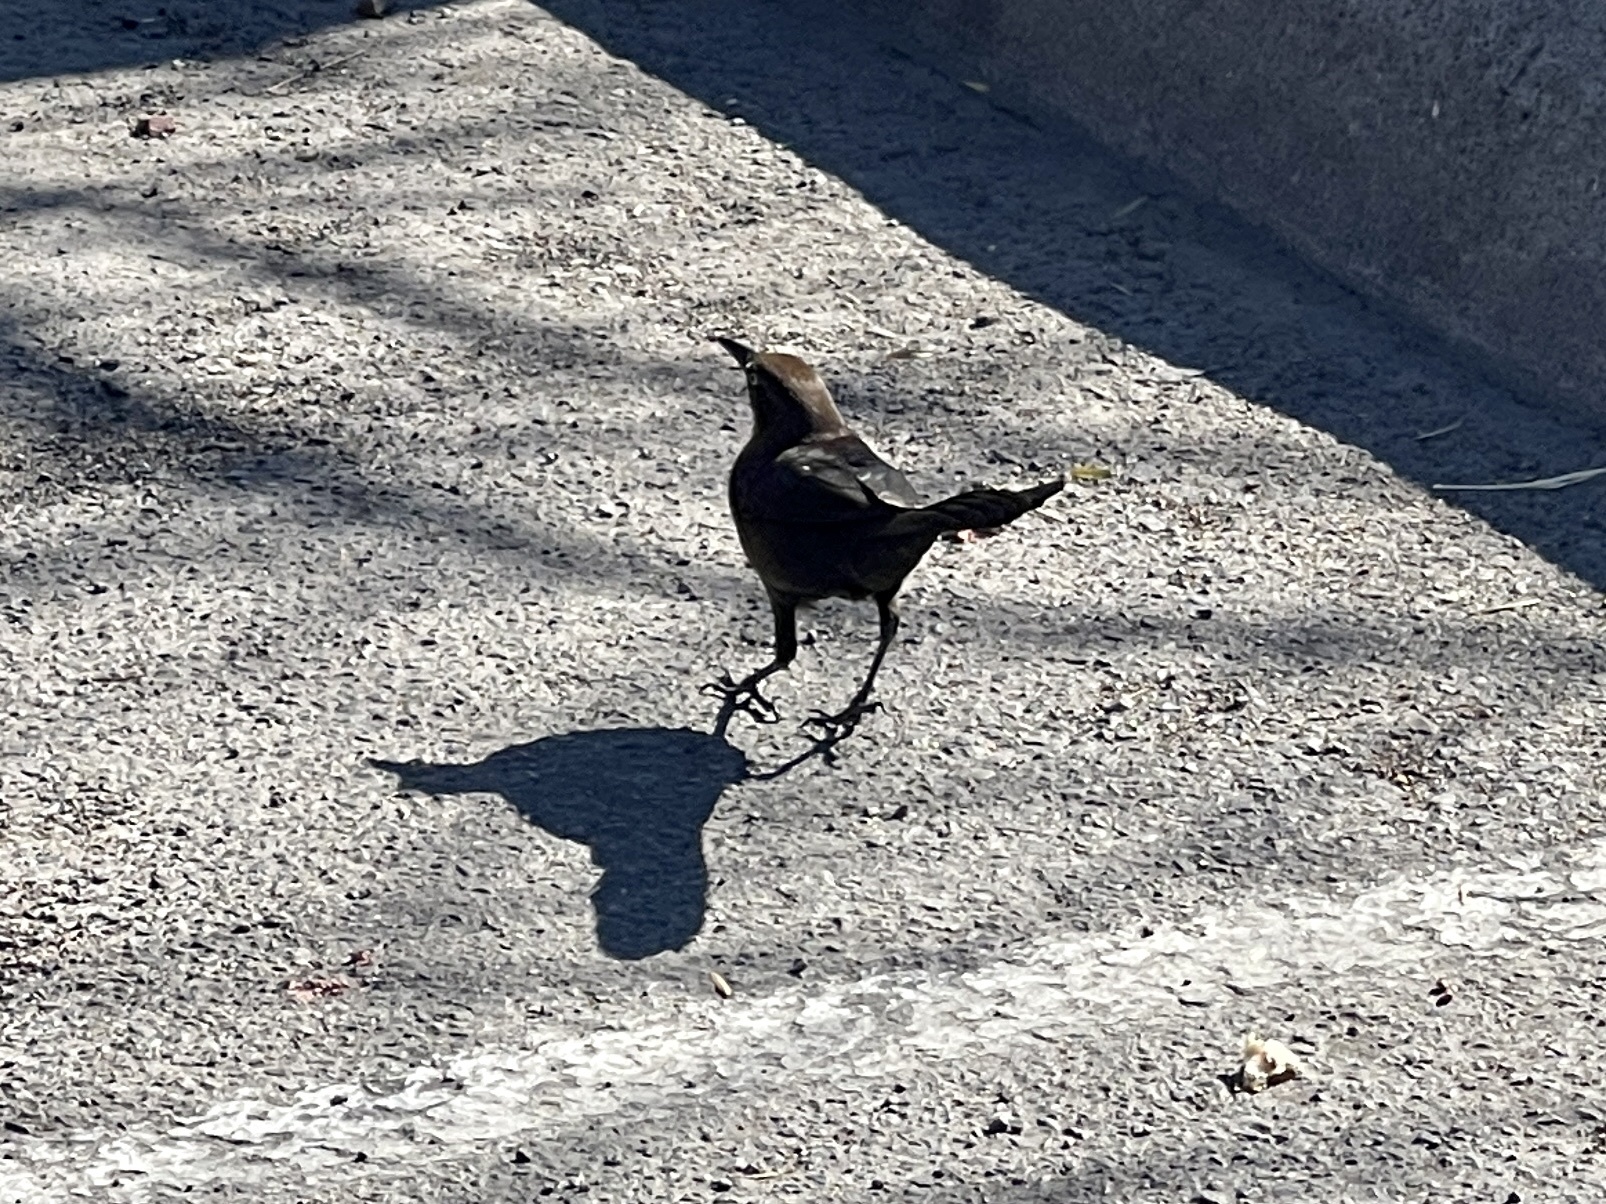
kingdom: Animalia
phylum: Chordata
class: Aves
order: Passeriformes
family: Icteridae
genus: Quiscalus
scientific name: Quiscalus mexicanus
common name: Great-tailed grackle
